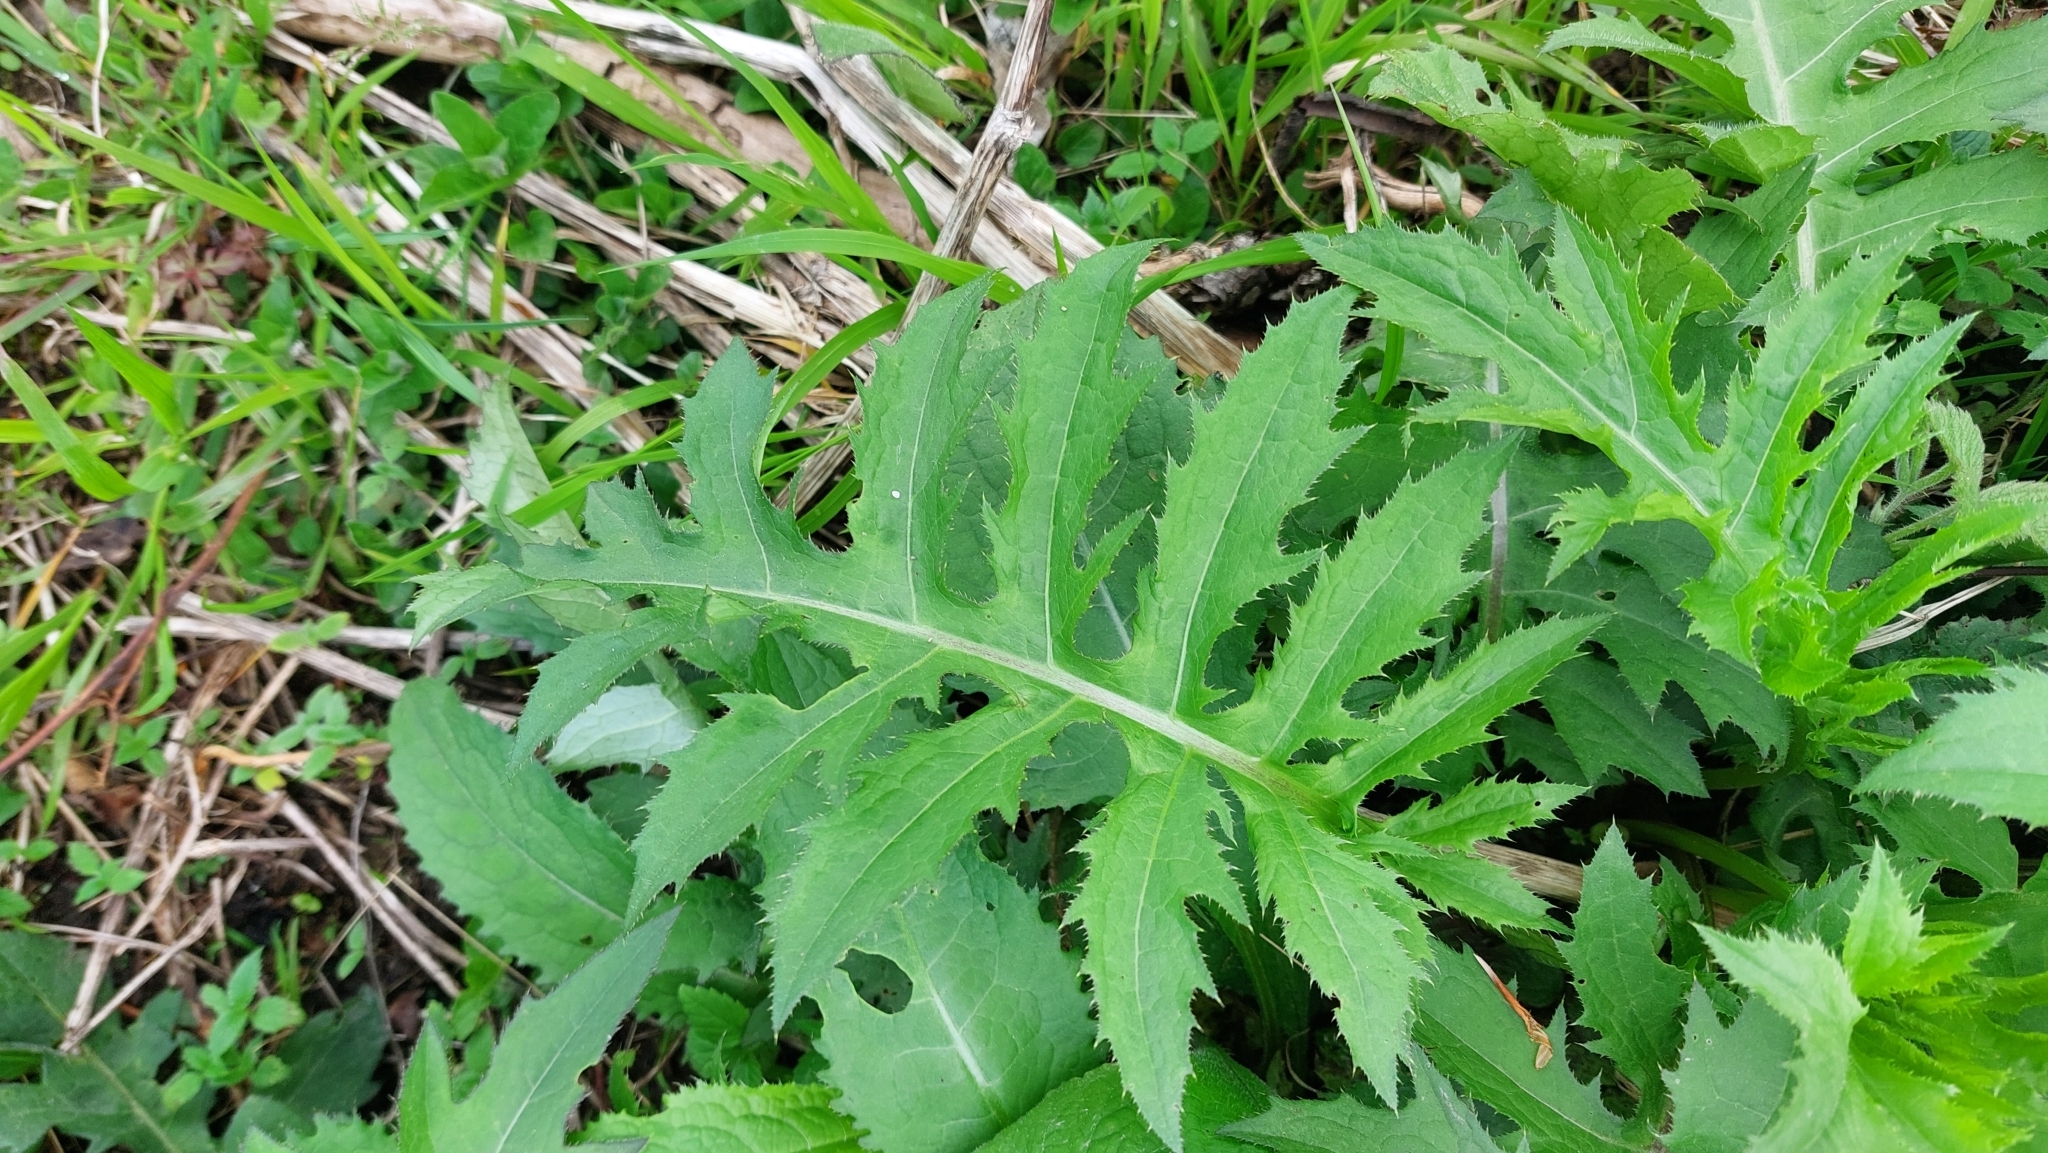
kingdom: Plantae
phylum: Tracheophyta
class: Magnoliopsida
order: Asterales
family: Asteraceae
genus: Cirsium
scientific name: Cirsium oleraceum
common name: Cabbage thistle
